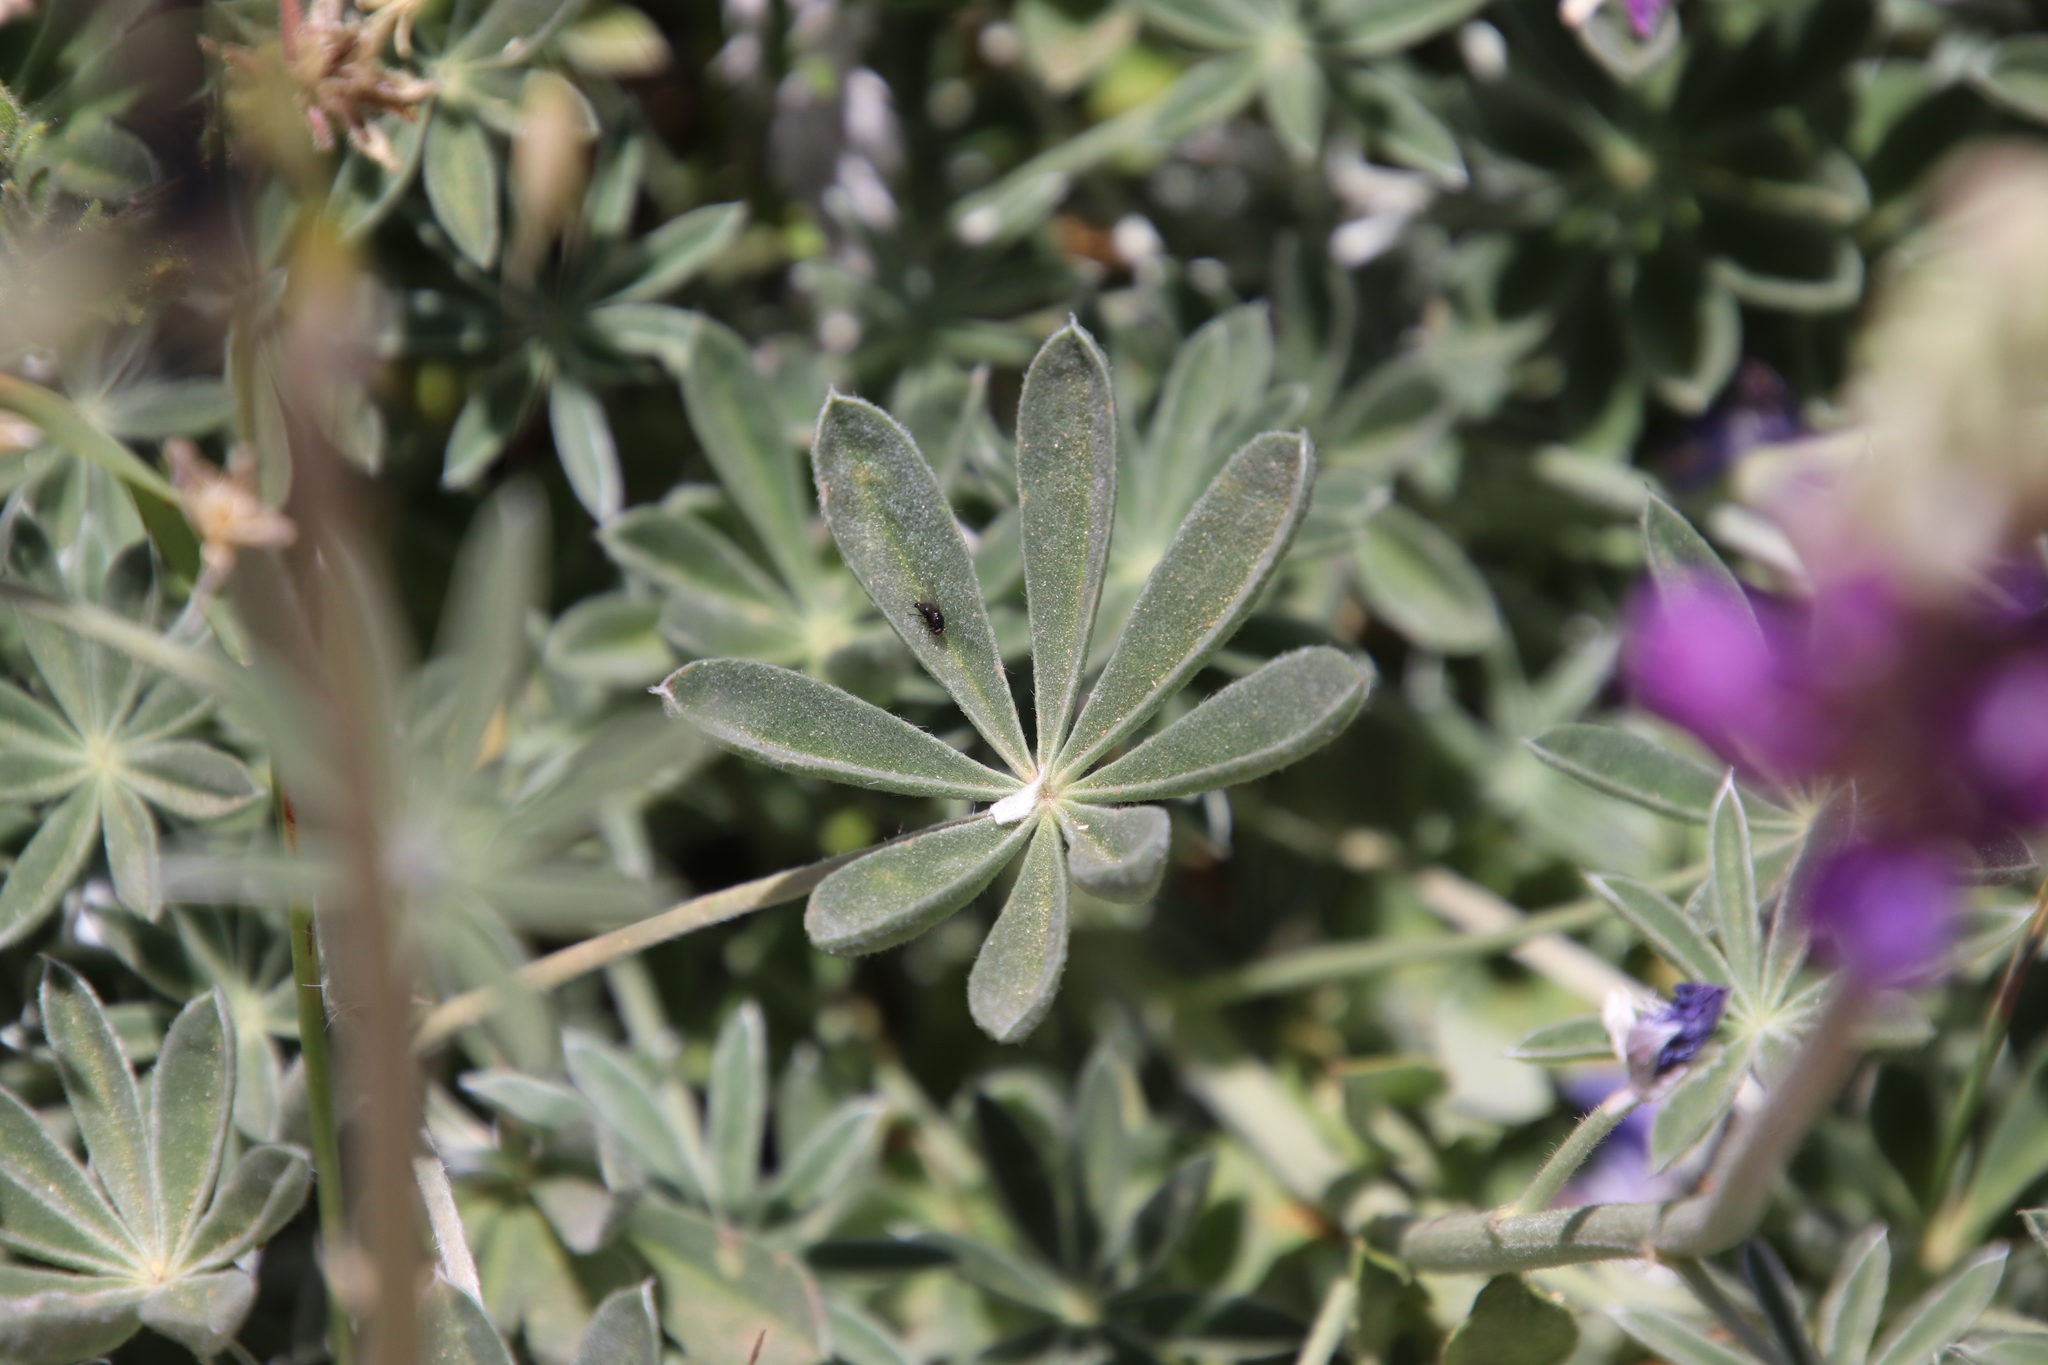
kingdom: Plantae
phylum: Tracheophyta
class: Magnoliopsida
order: Fabales
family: Fabaceae
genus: Lupinus
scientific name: Lupinus excubitus
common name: Grape soda lupine
